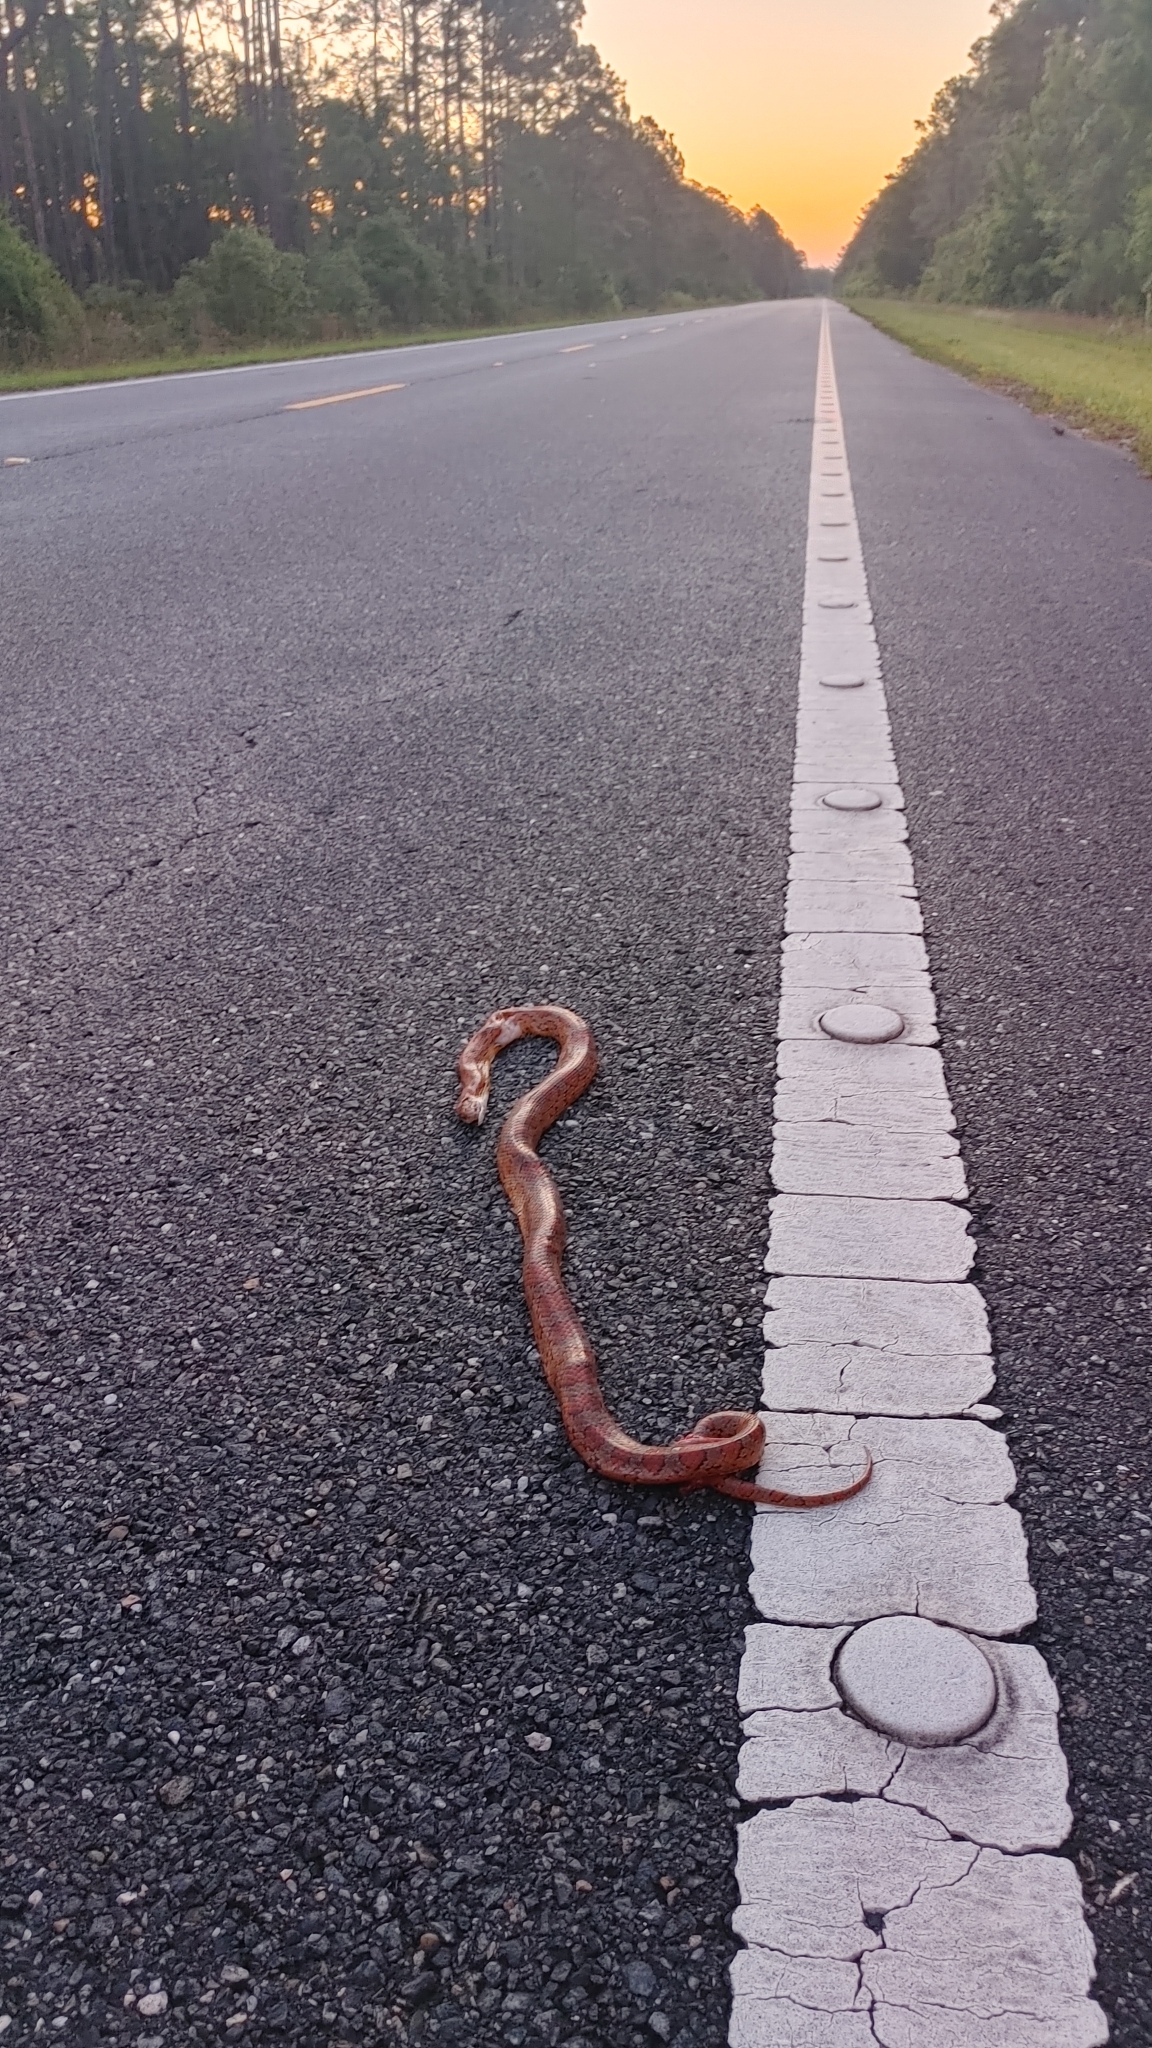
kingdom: Animalia
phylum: Chordata
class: Squamata
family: Colubridae
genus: Pantherophis
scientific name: Pantherophis guttatus
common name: Red cornsnake
